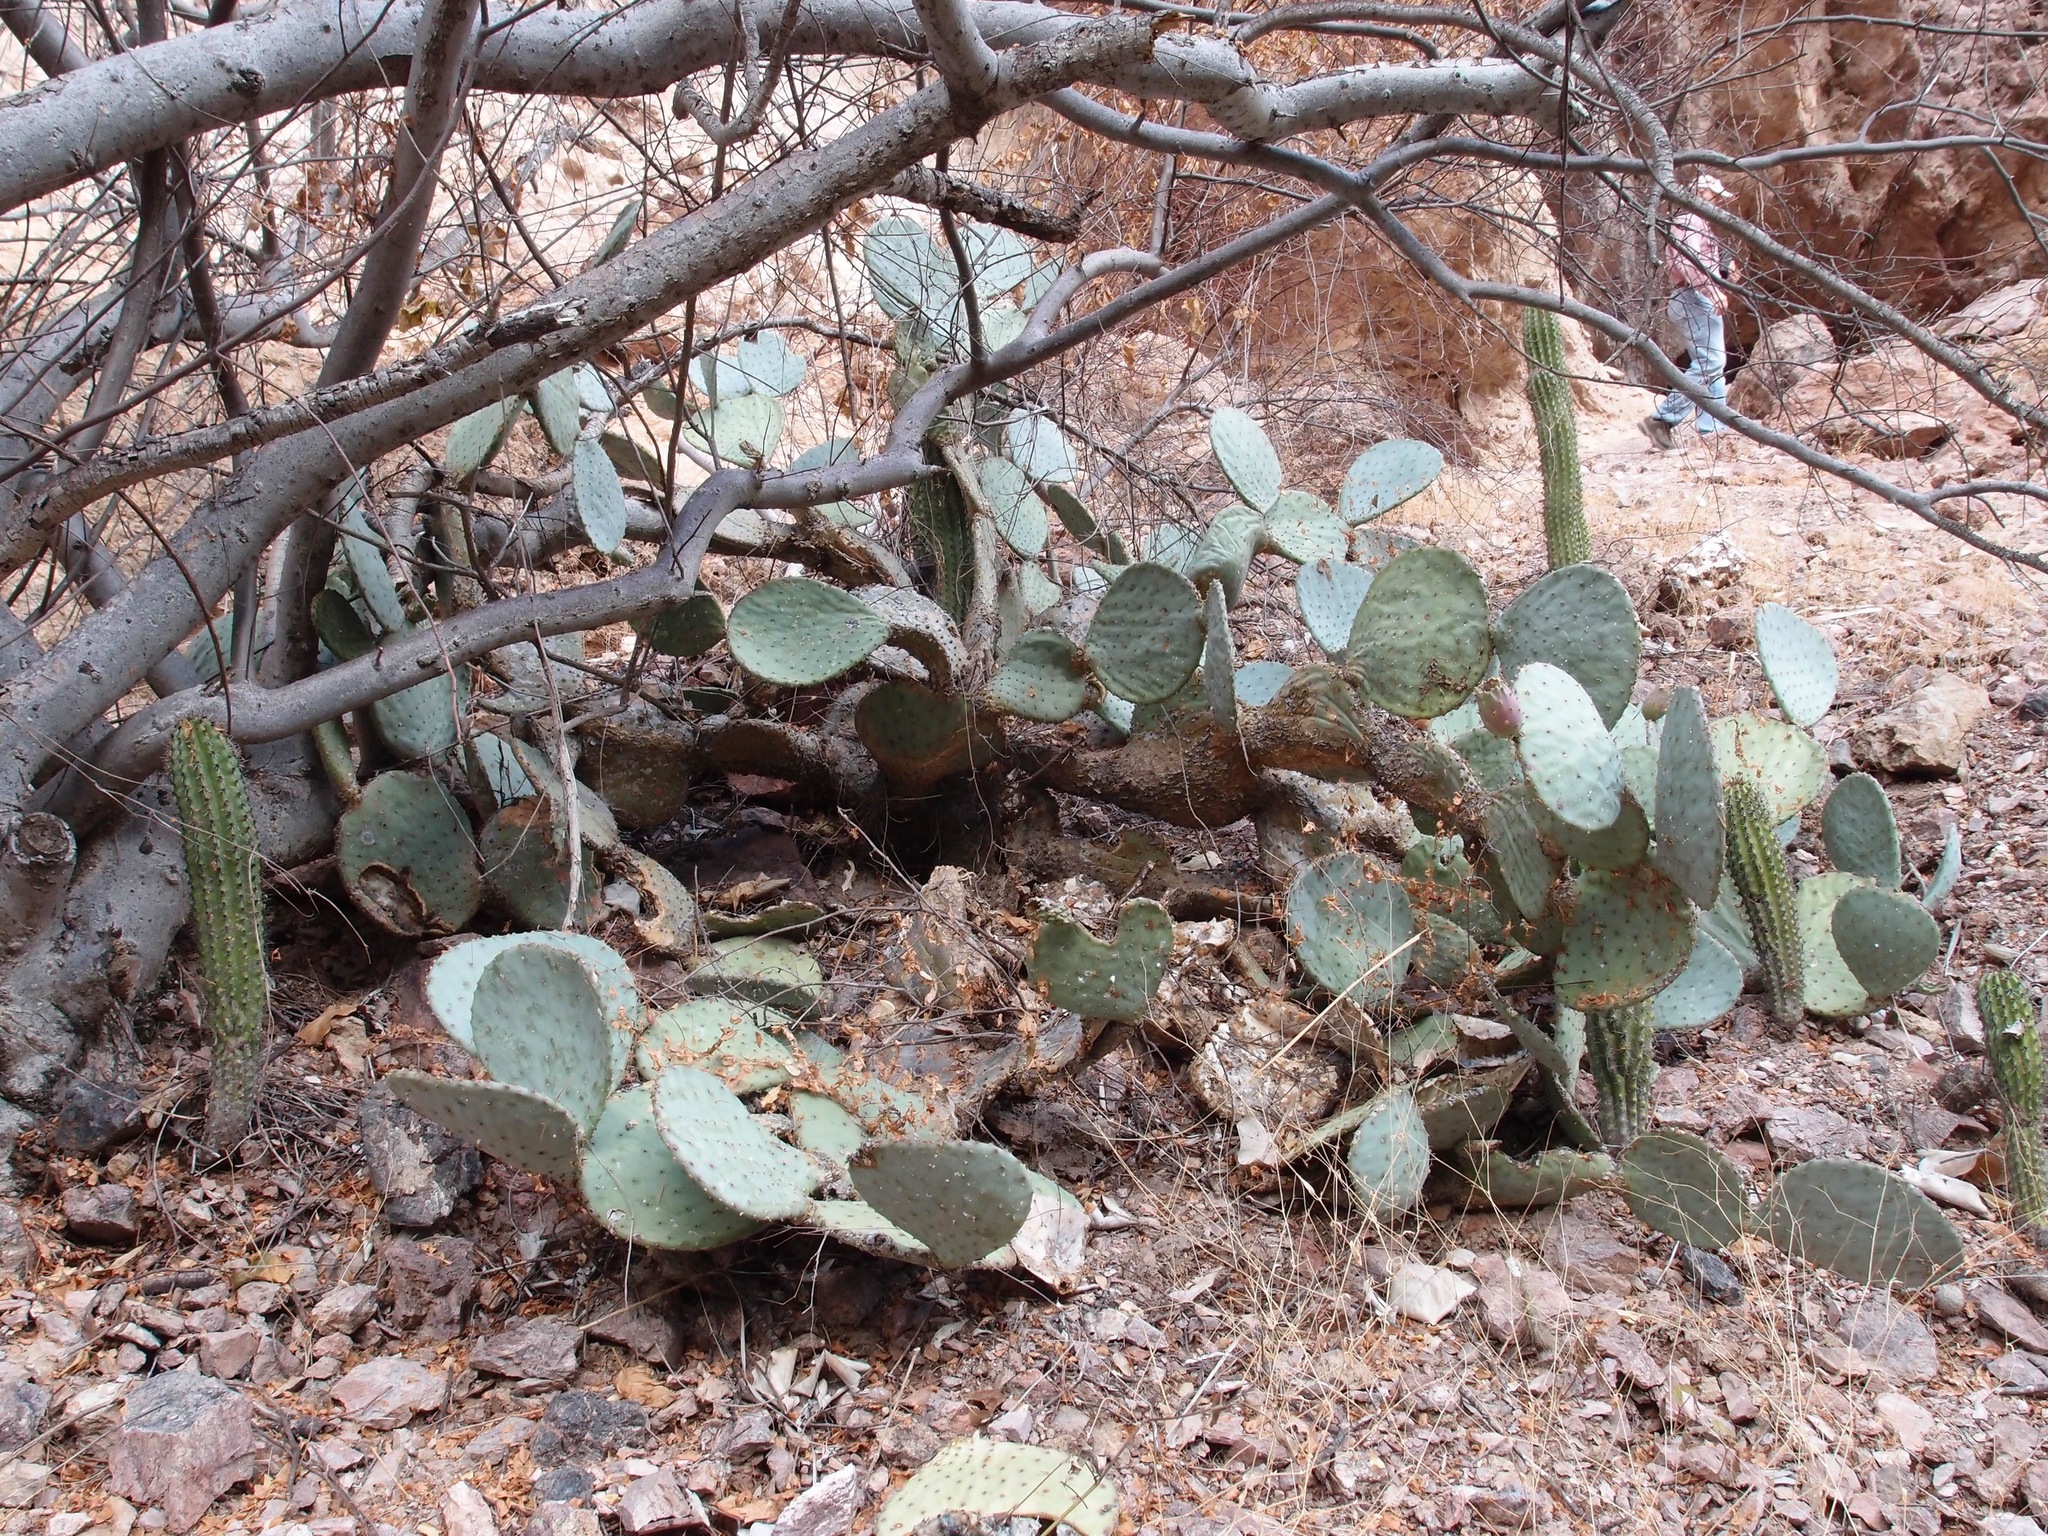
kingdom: Plantae
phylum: Tracheophyta
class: Magnoliopsida
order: Caryophyllales
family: Cactaceae
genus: Opuntia
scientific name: Opuntia gosseliniana
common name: Violet prickly-pear
